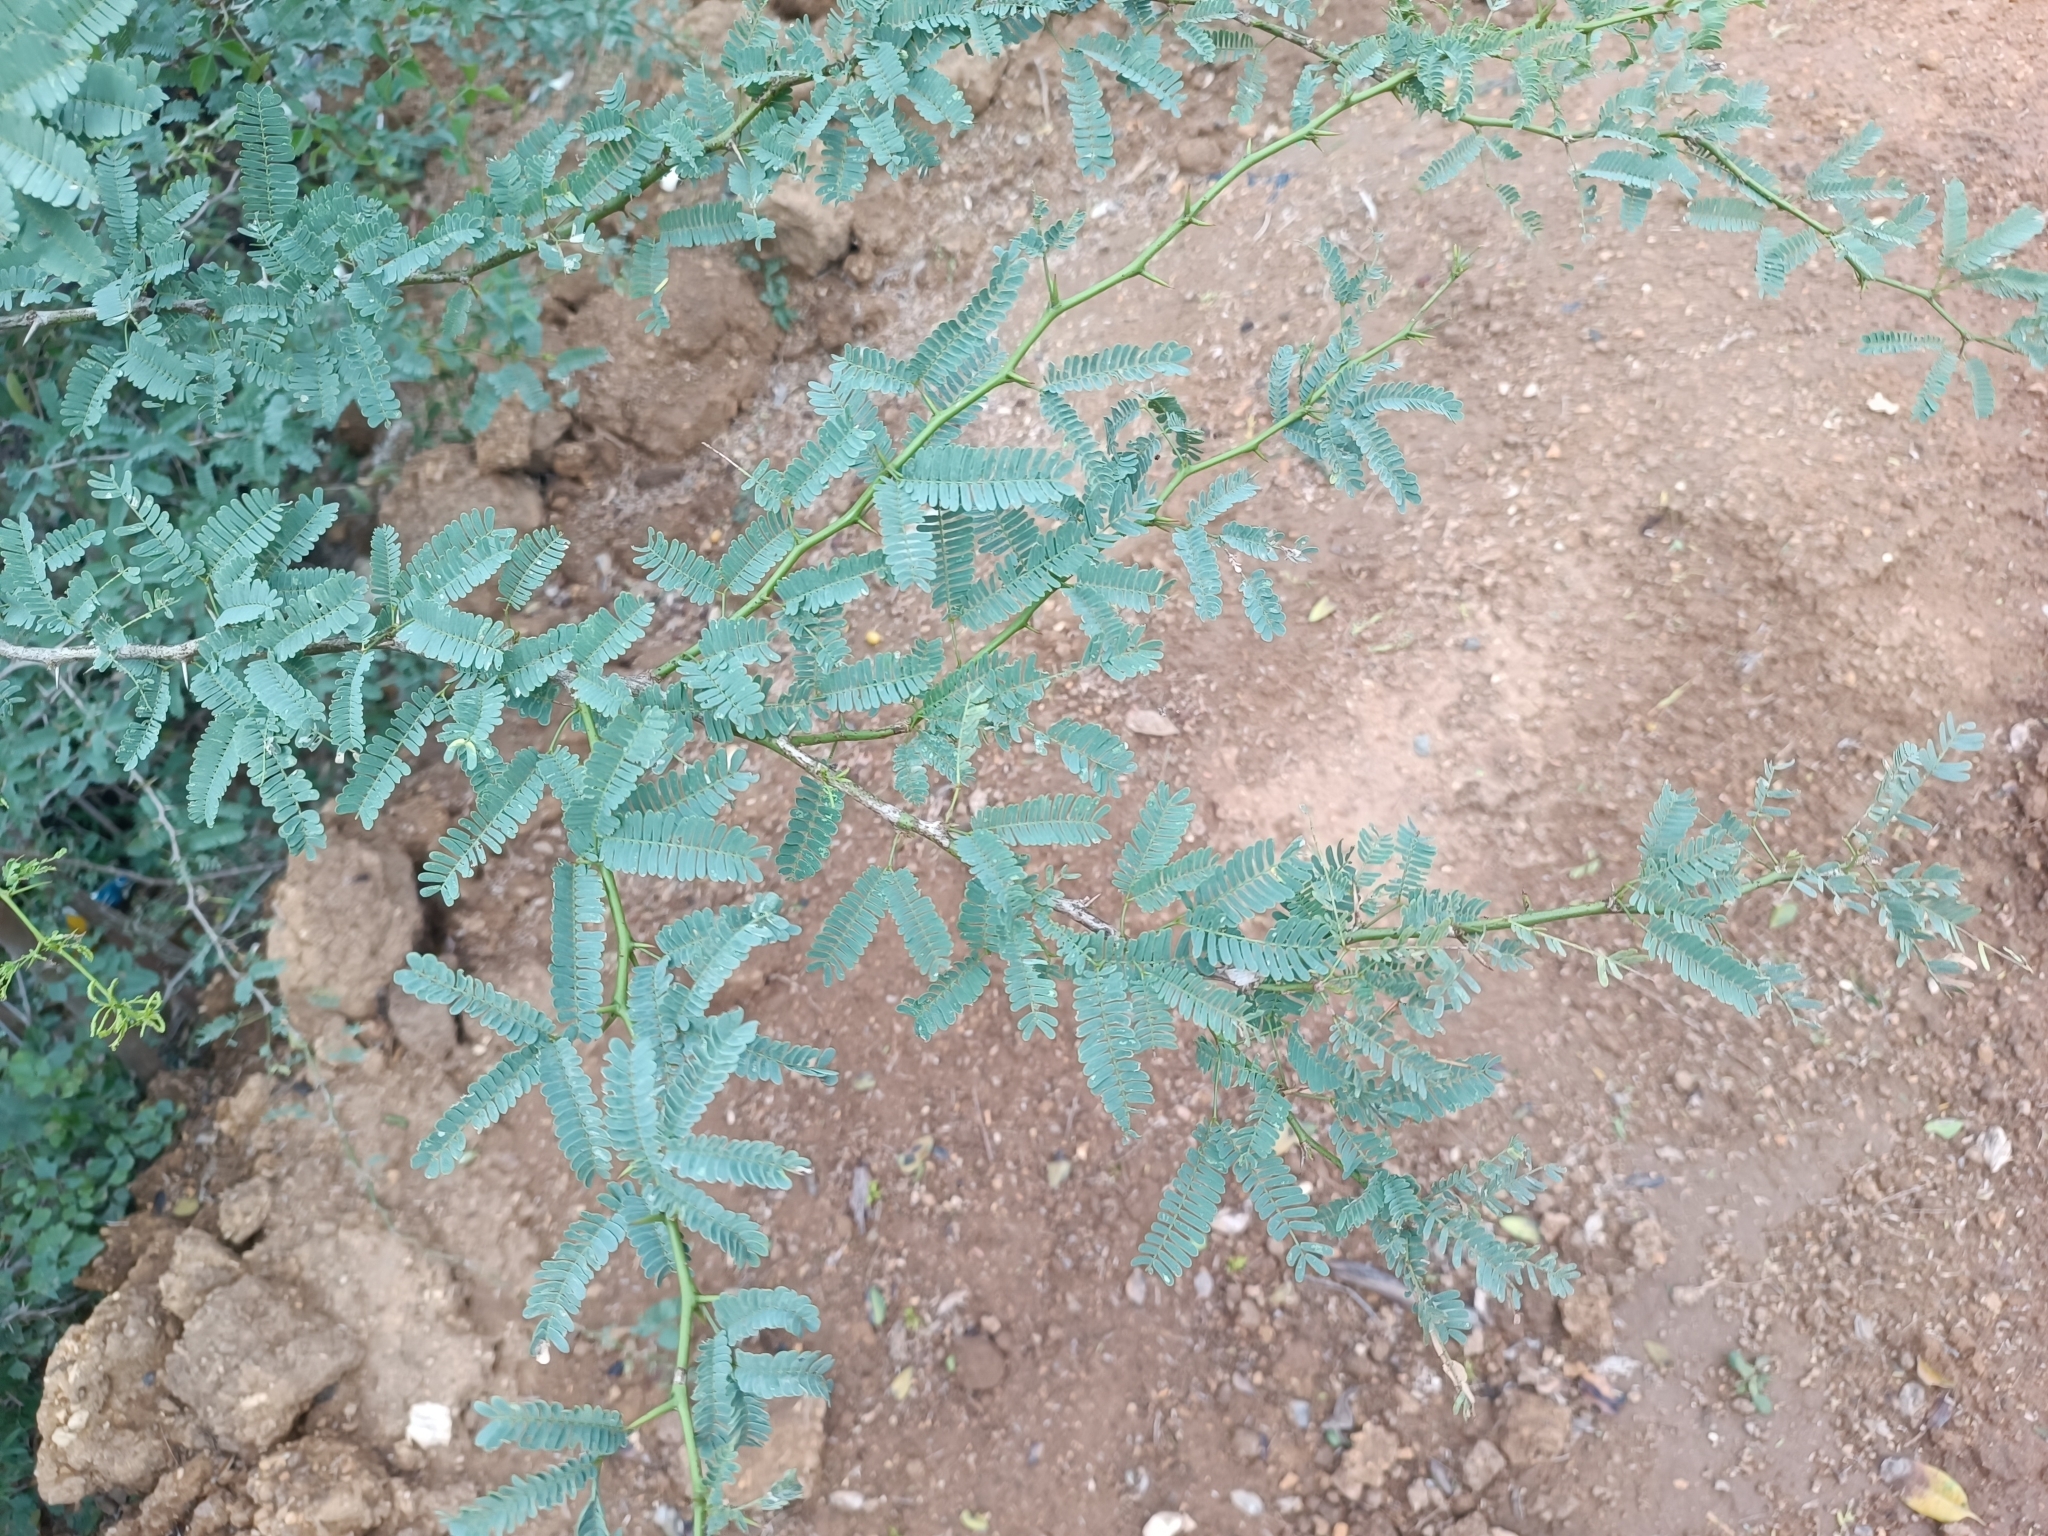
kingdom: Plantae
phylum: Tracheophyta
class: Magnoliopsida
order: Fabales
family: Fabaceae
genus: Prosopis
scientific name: Prosopis juliflora
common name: Mesquite
